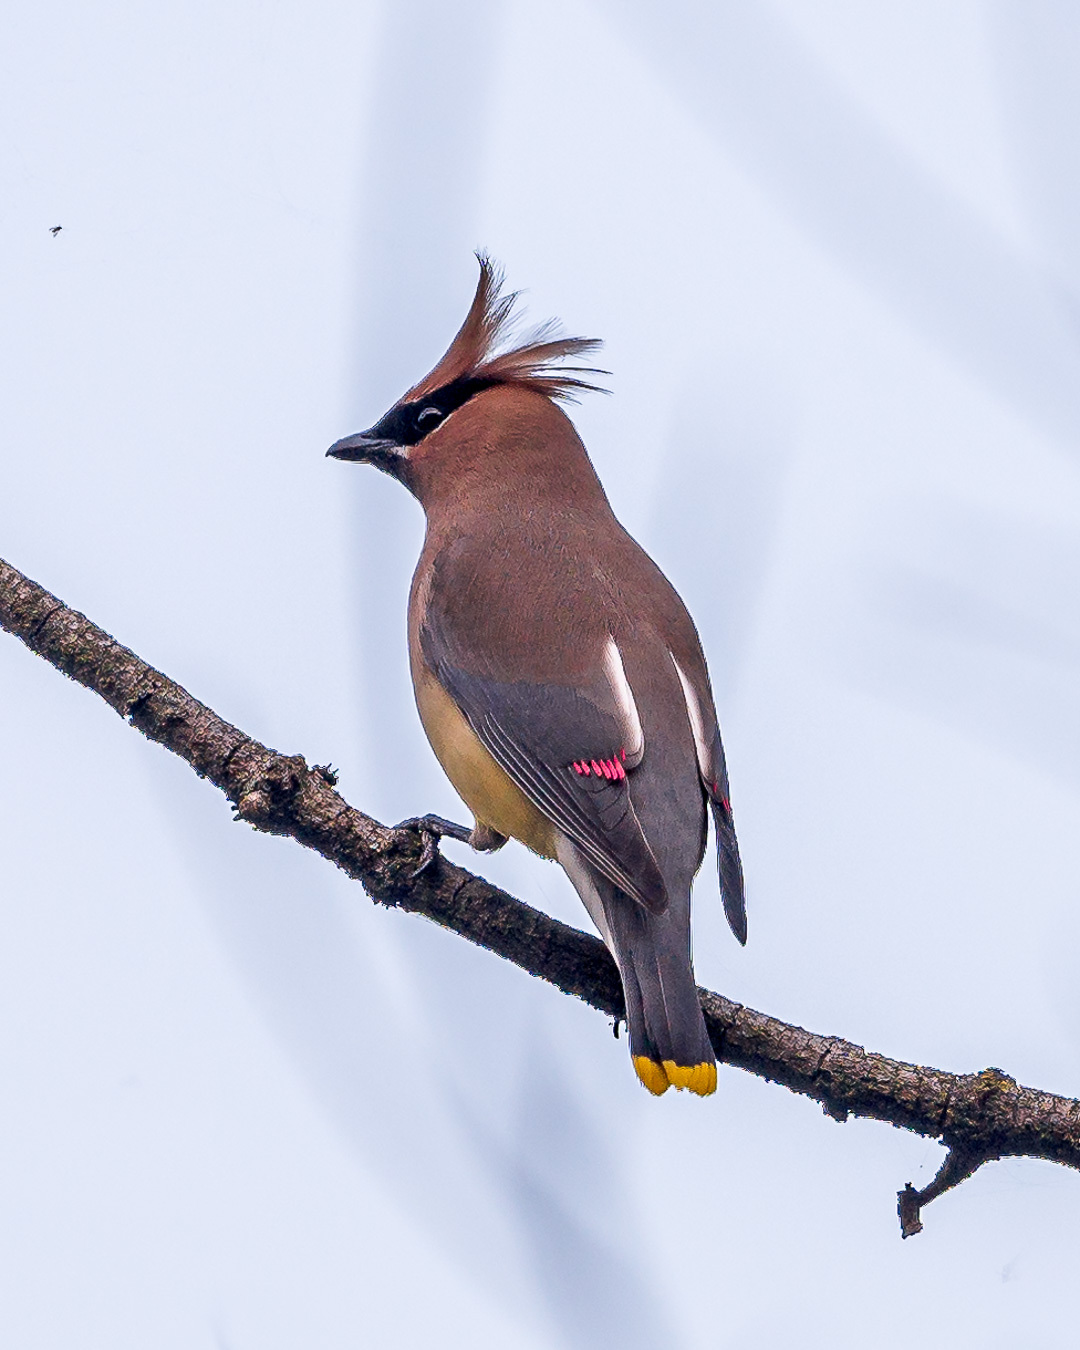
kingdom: Animalia
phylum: Chordata
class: Aves
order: Passeriformes
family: Bombycillidae
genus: Bombycilla
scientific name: Bombycilla cedrorum
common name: Cedar waxwing
